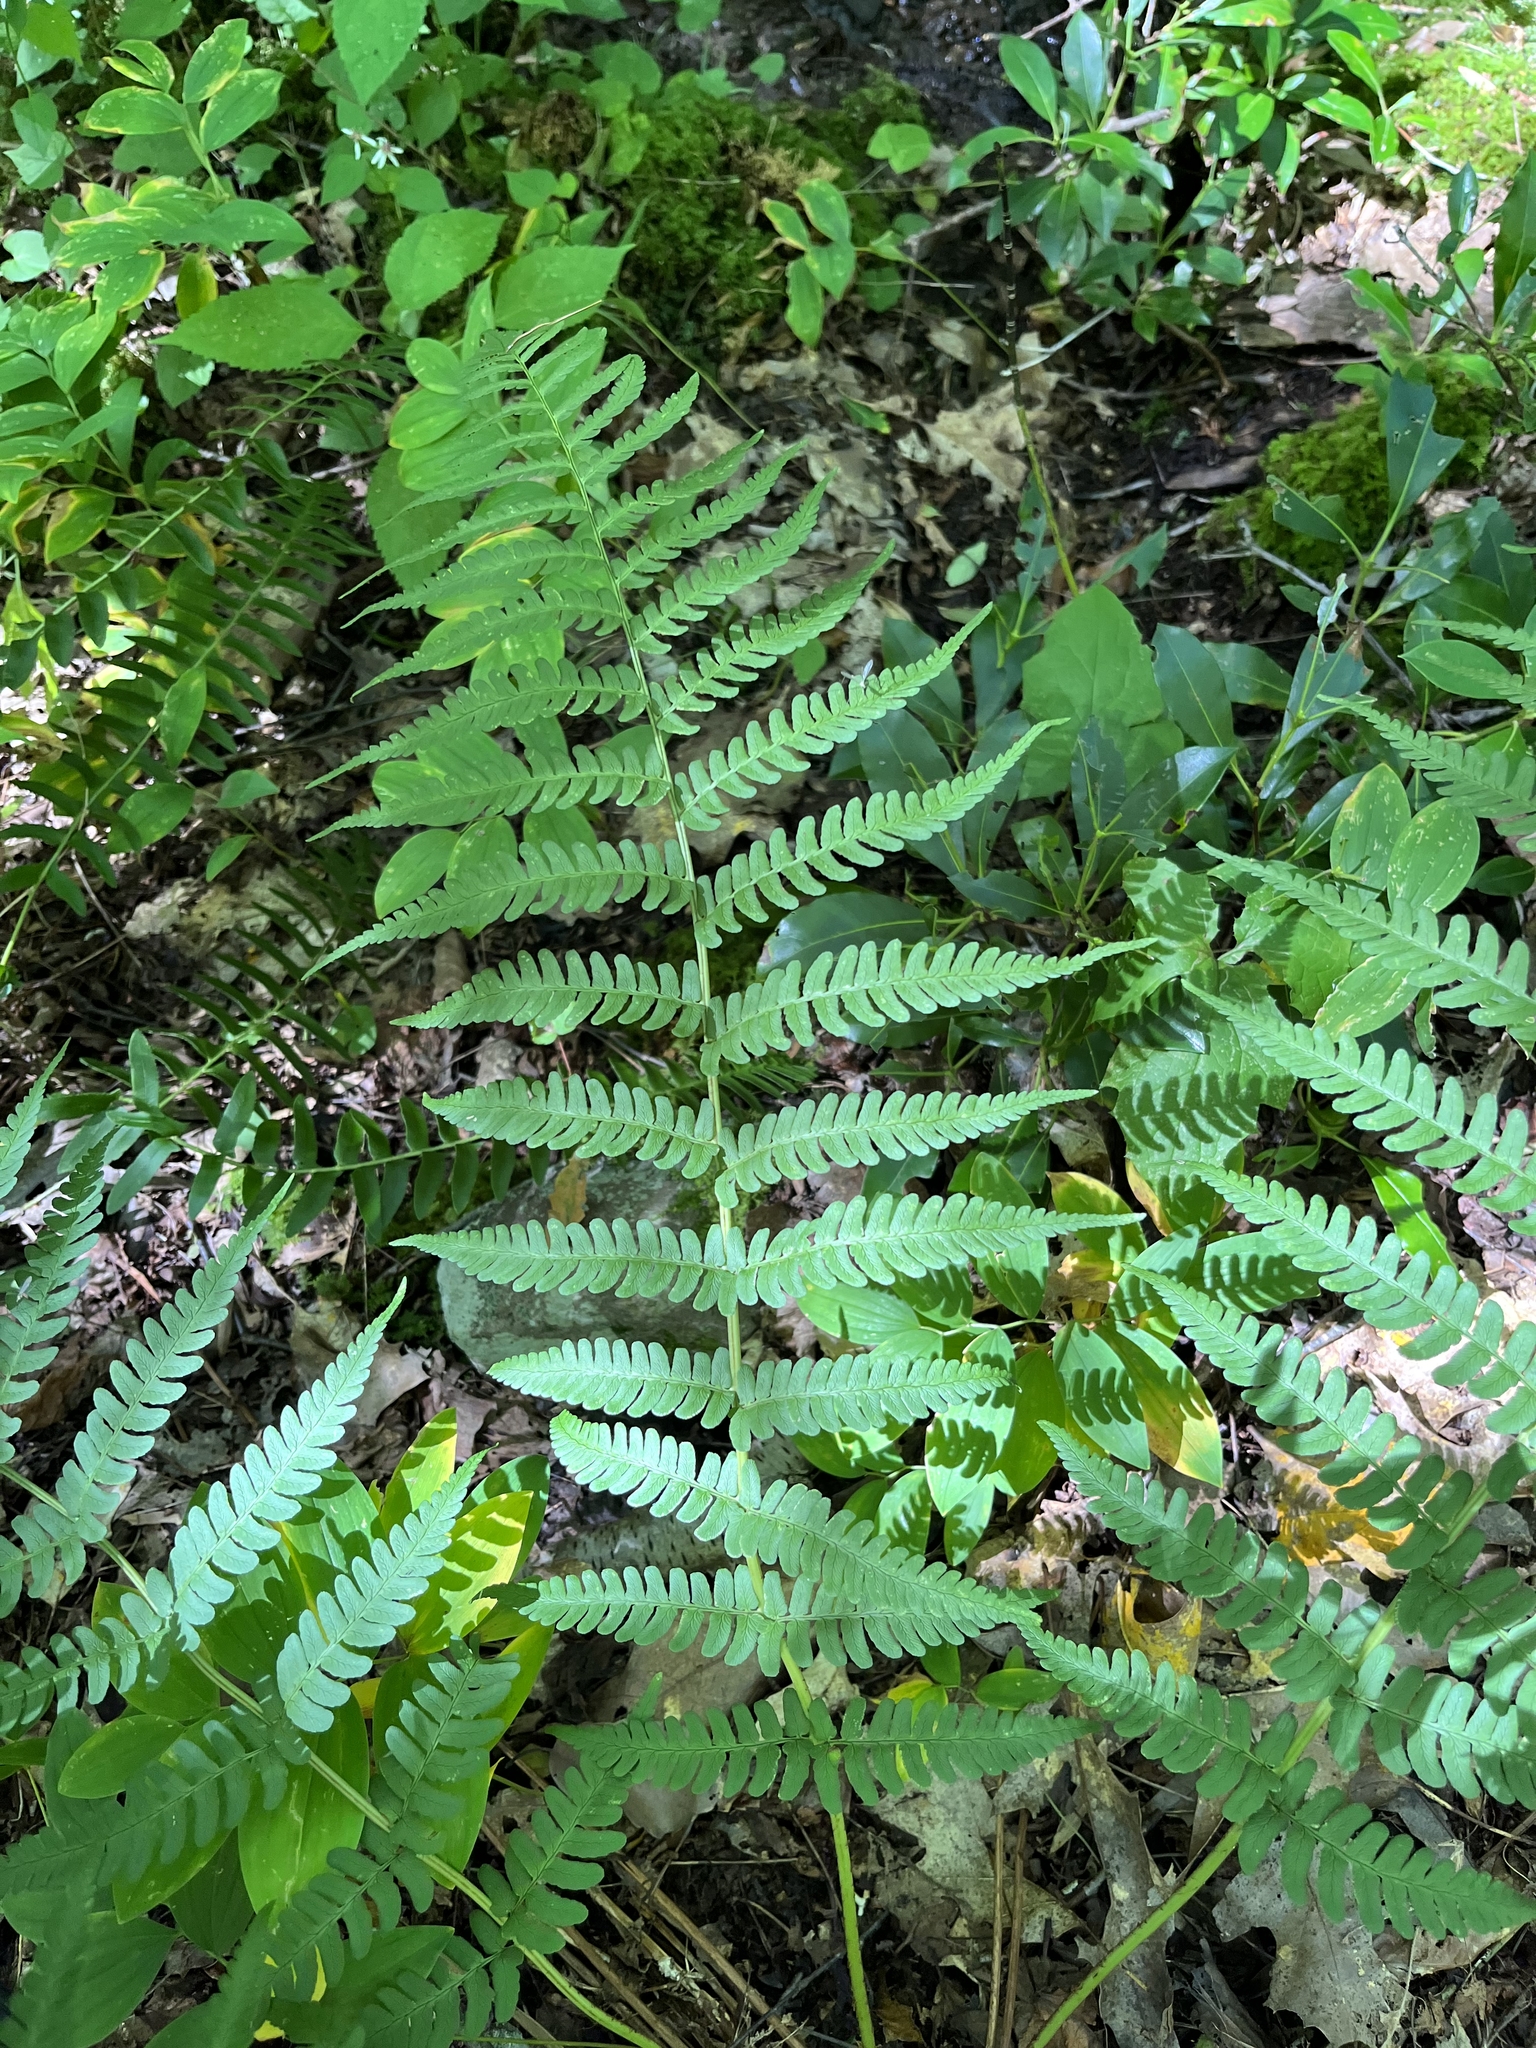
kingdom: Plantae
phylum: Tracheophyta
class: Polypodiopsida
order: Polypodiales
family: Dryopteridaceae
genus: Dryopteris
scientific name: Dryopteris marginalis
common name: Marginal wood fern
